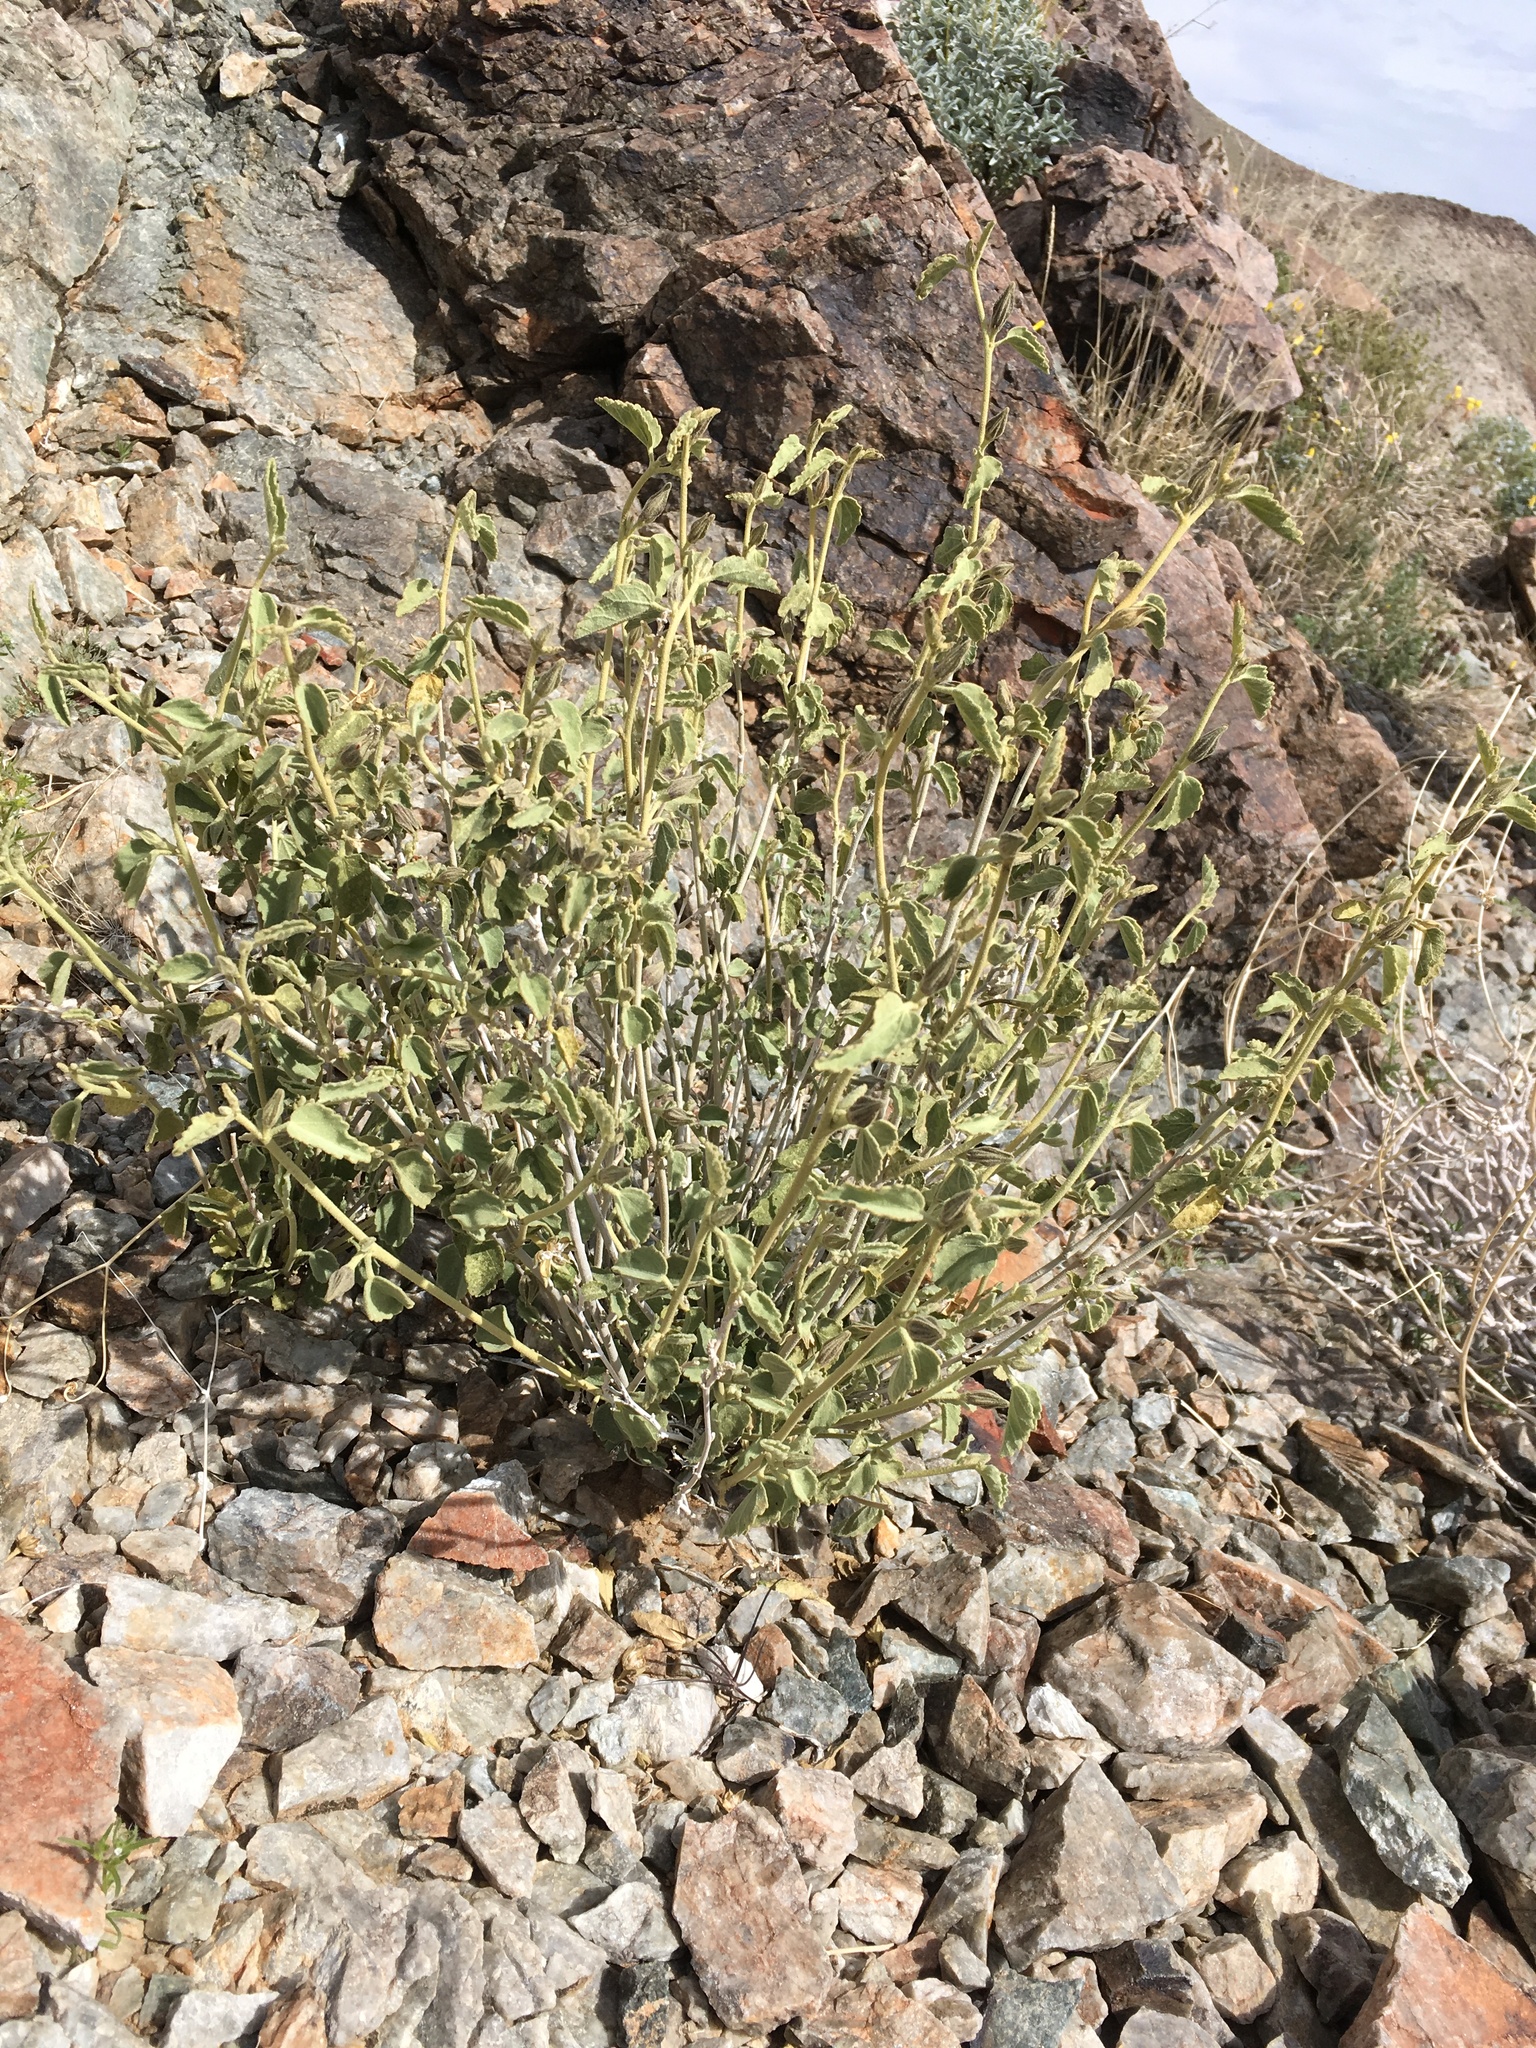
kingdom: Plantae
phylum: Tracheophyta
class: Magnoliopsida
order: Malvales
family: Malvaceae
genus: Hibiscus
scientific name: Hibiscus denudatus
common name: Paleface
